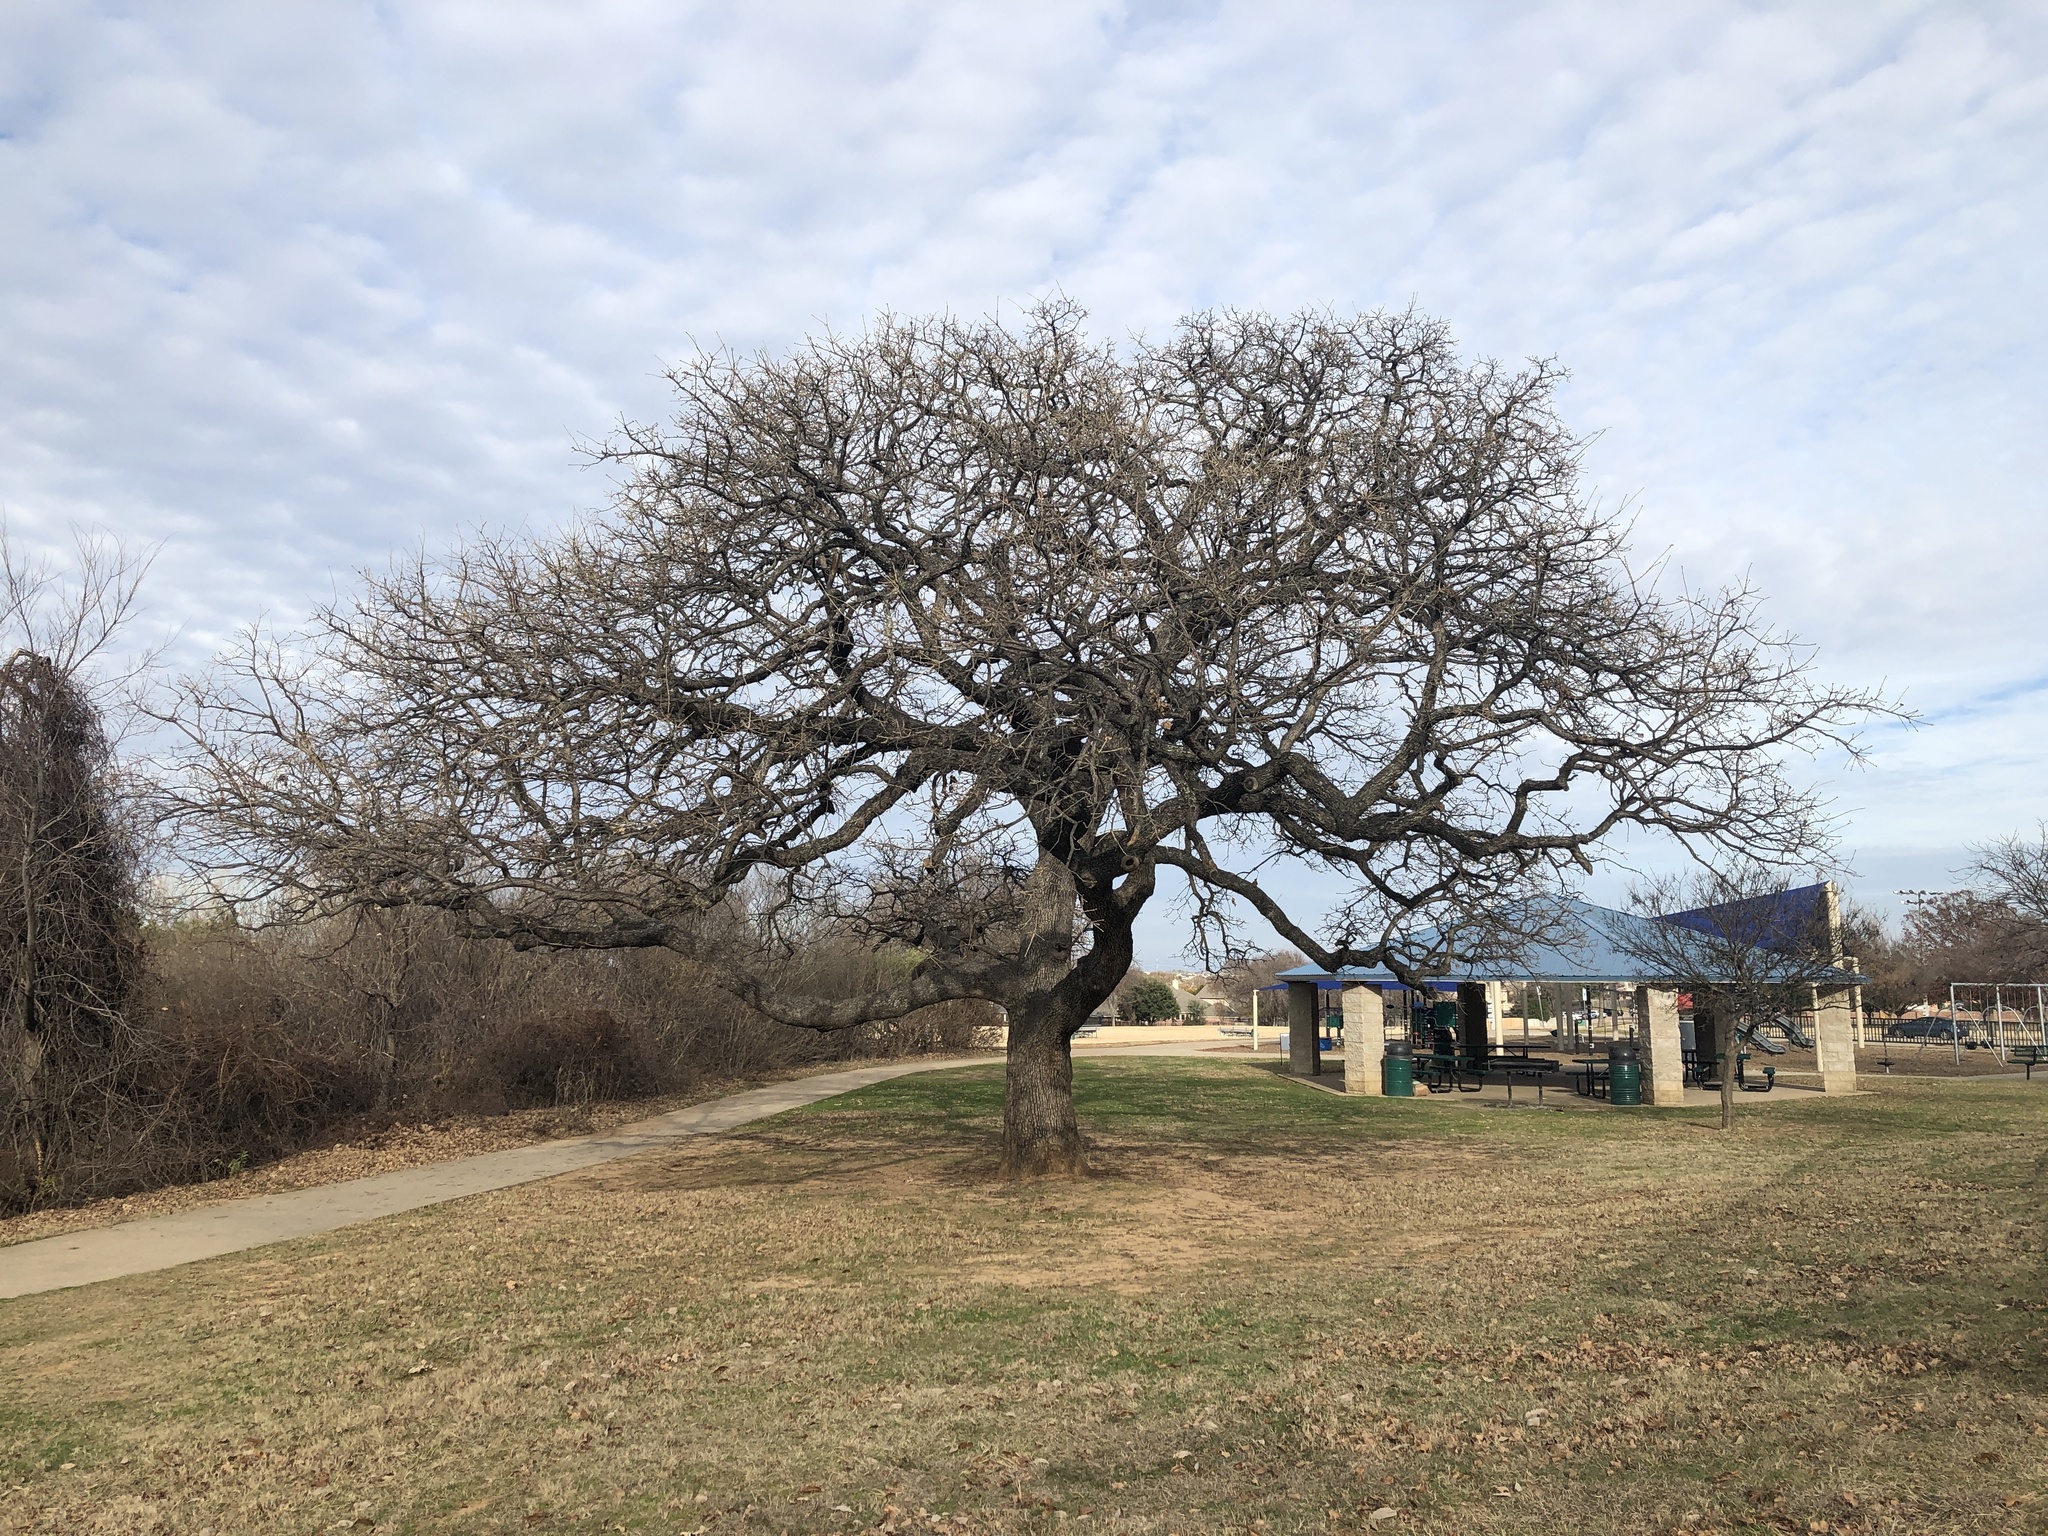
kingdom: Plantae
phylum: Tracheophyta
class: Magnoliopsida
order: Fagales
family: Fagaceae
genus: Quercus
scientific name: Quercus stellata
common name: Post oak
